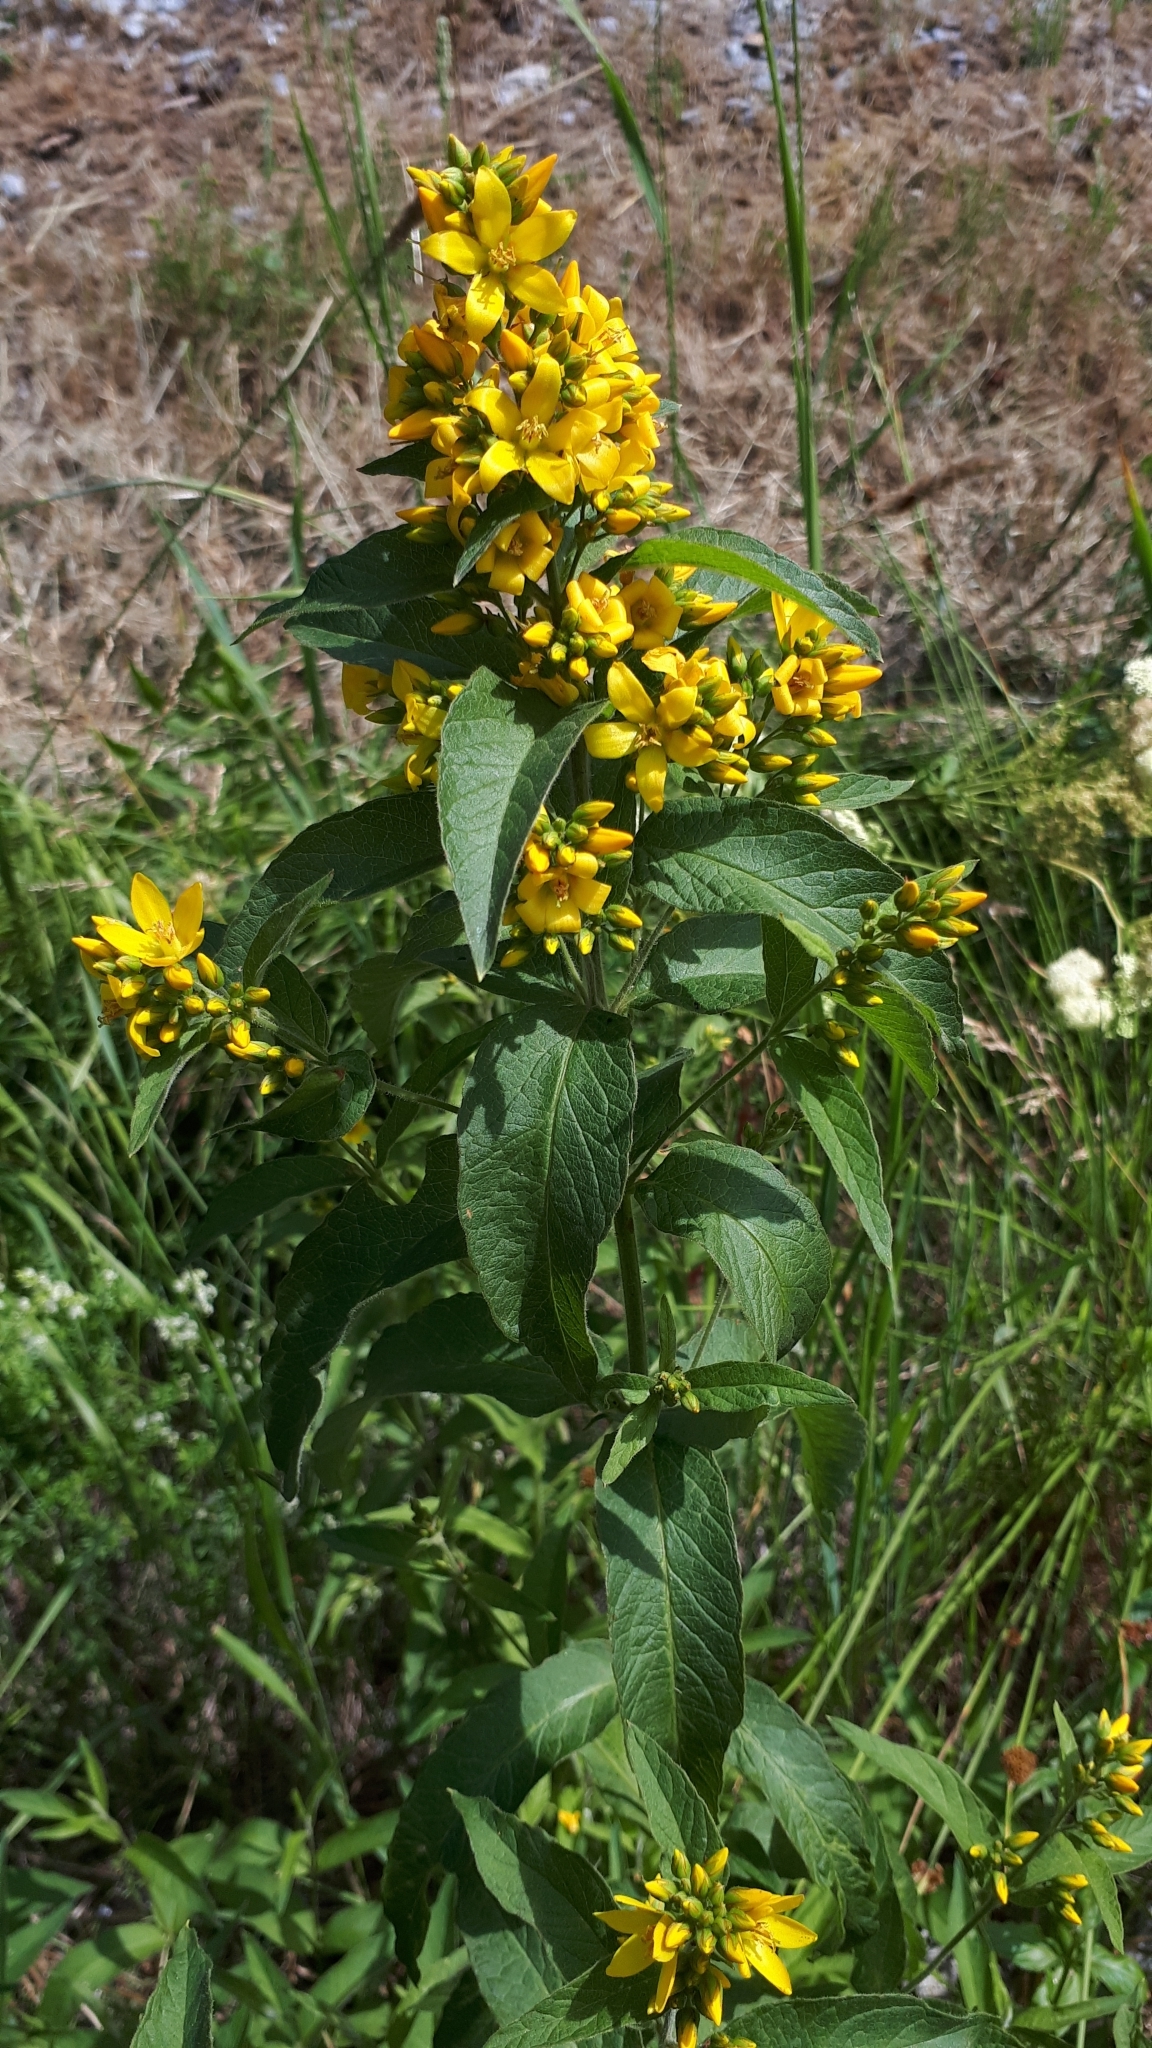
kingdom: Plantae
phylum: Tracheophyta
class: Magnoliopsida
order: Ericales
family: Primulaceae
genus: Lysimachia
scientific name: Lysimachia vulgaris
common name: Yellow loosestrife
